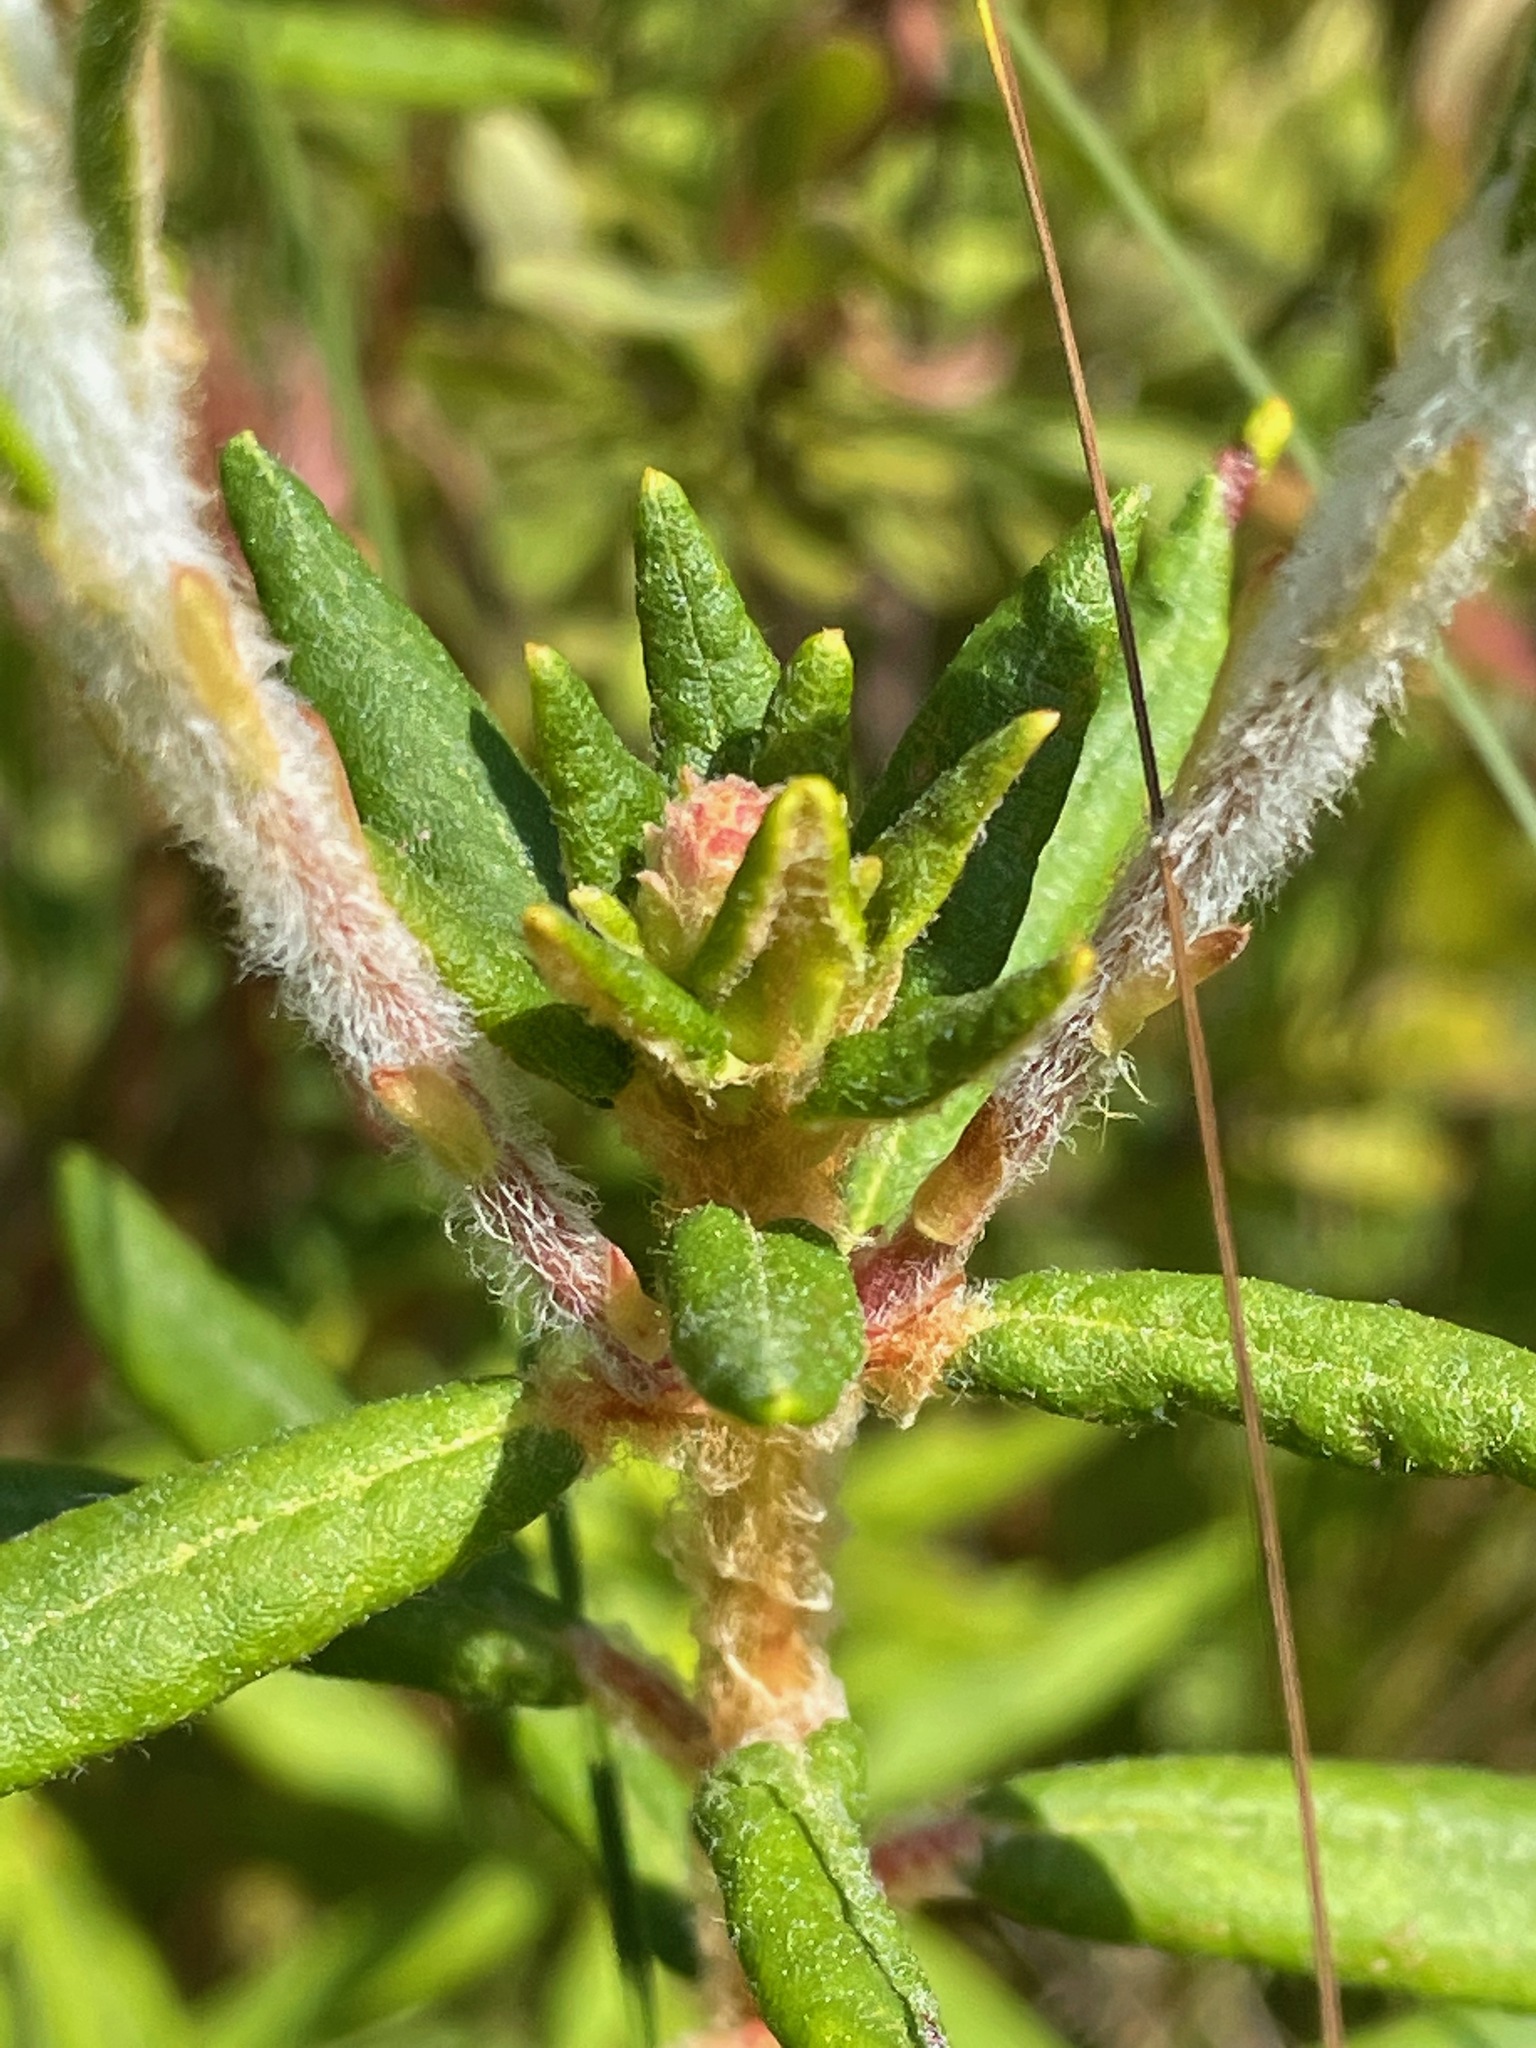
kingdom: Plantae
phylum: Tracheophyta
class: Magnoliopsida
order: Ericales
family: Ericaceae
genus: Rhododendron
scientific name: Rhododendron groenlandicum
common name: Bog labrador tea
